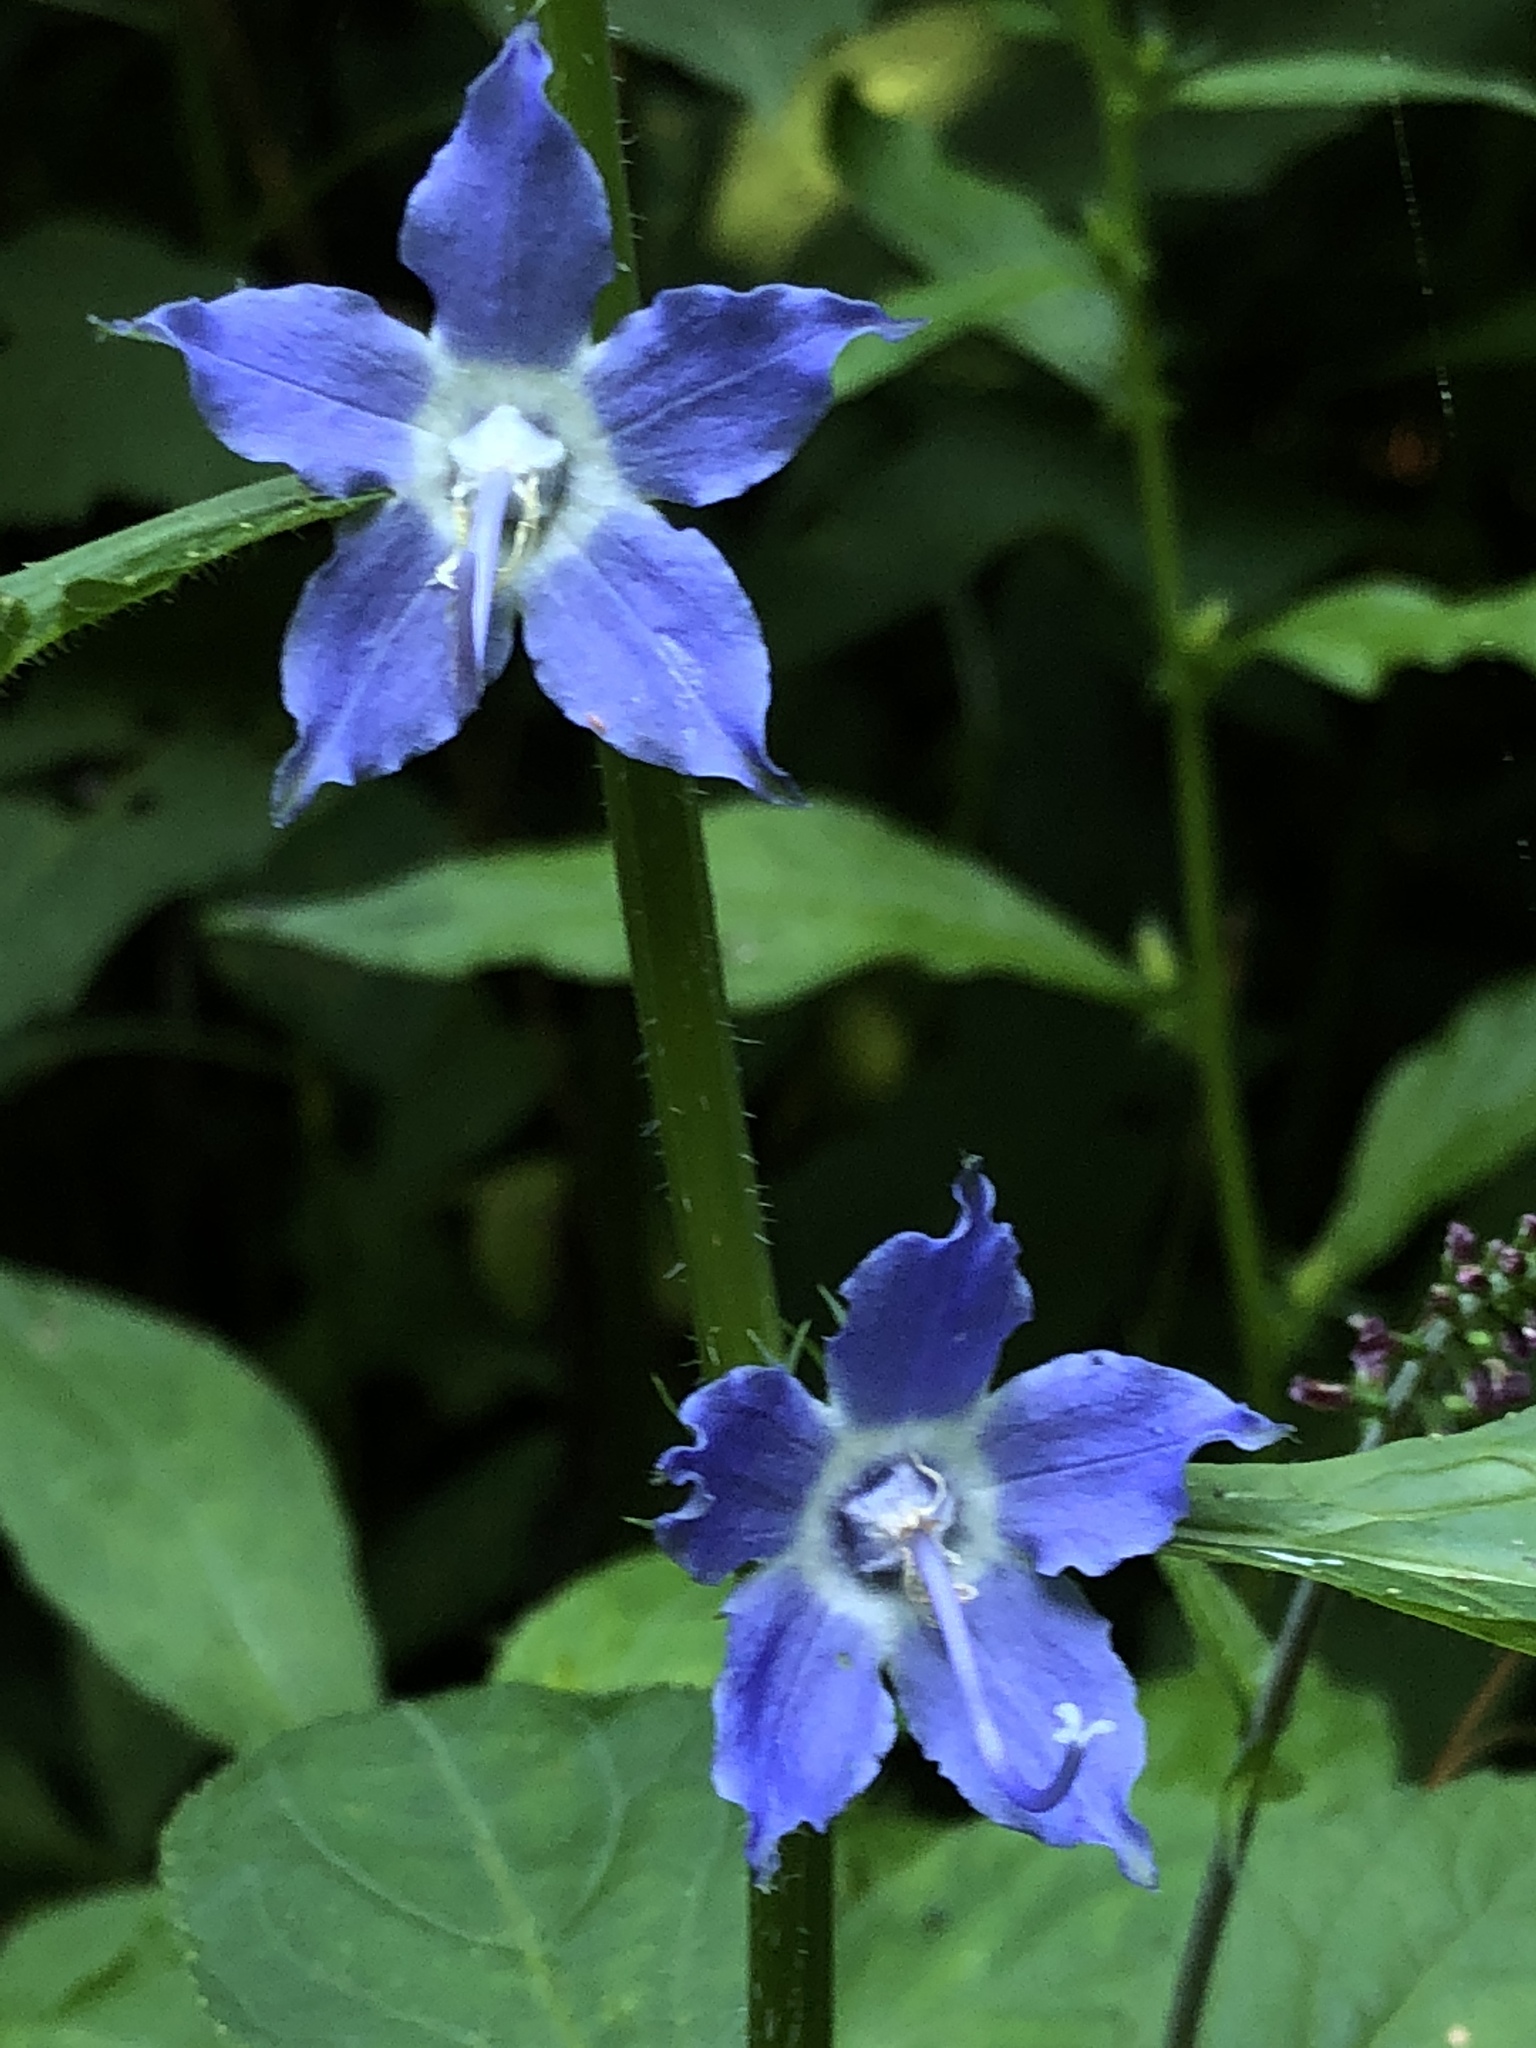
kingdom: Plantae
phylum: Tracheophyta
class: Magnoliopsida
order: Asterales
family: Campanulaceae
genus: Campanulastrum
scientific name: Campanulastrum americanum
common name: American bellflower
